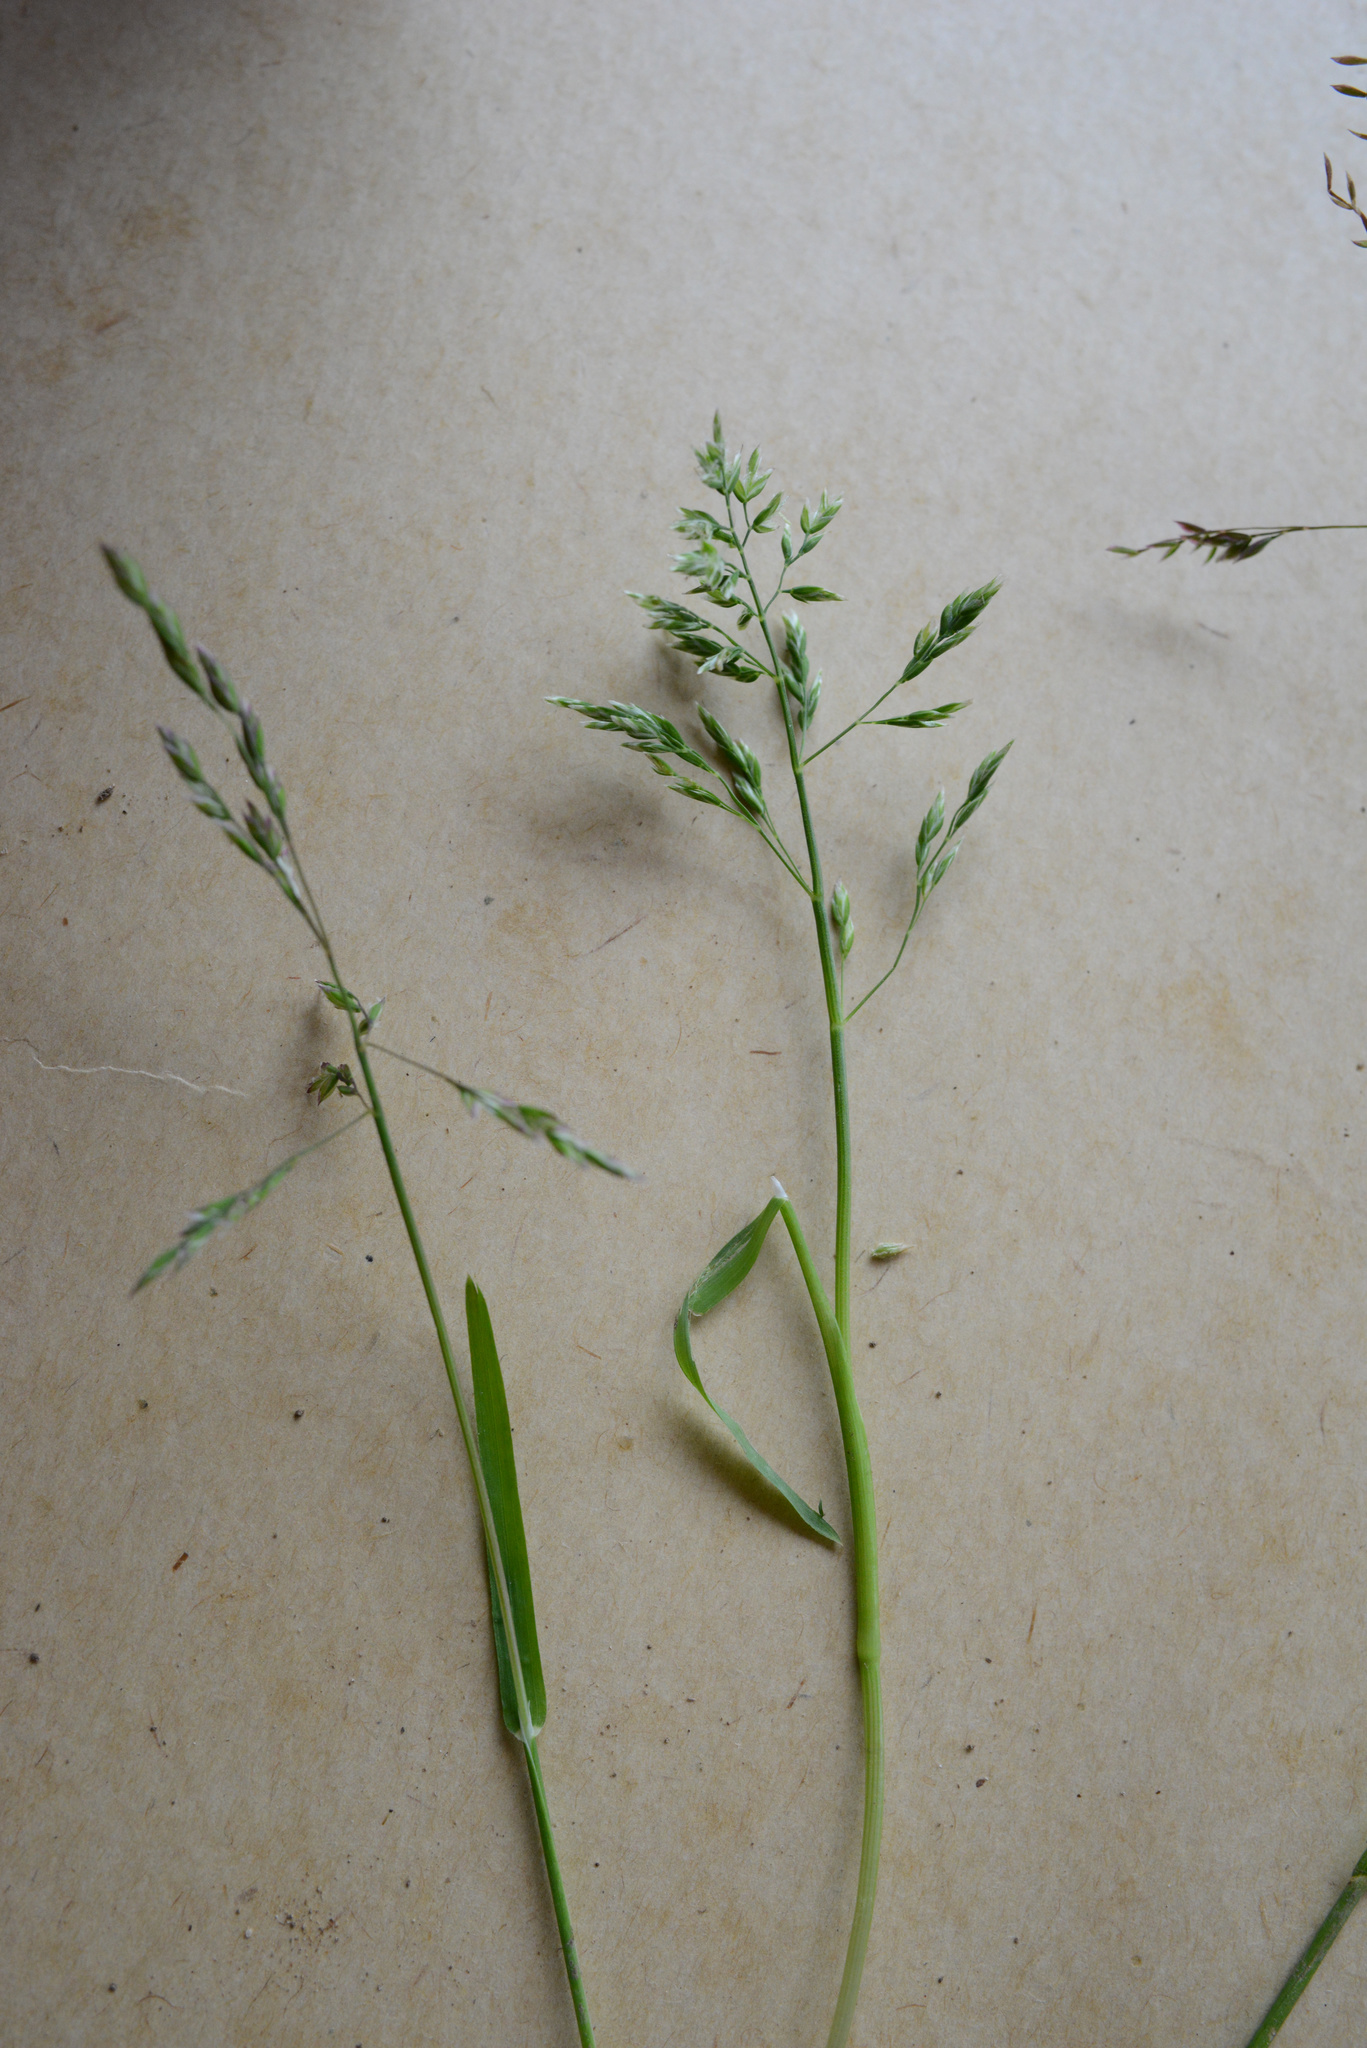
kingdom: Plantae
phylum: Tracheophyta
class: Liliopsida
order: Poales
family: Poaceae
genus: Poa
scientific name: Poa trivialis
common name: Rough bluegrass
